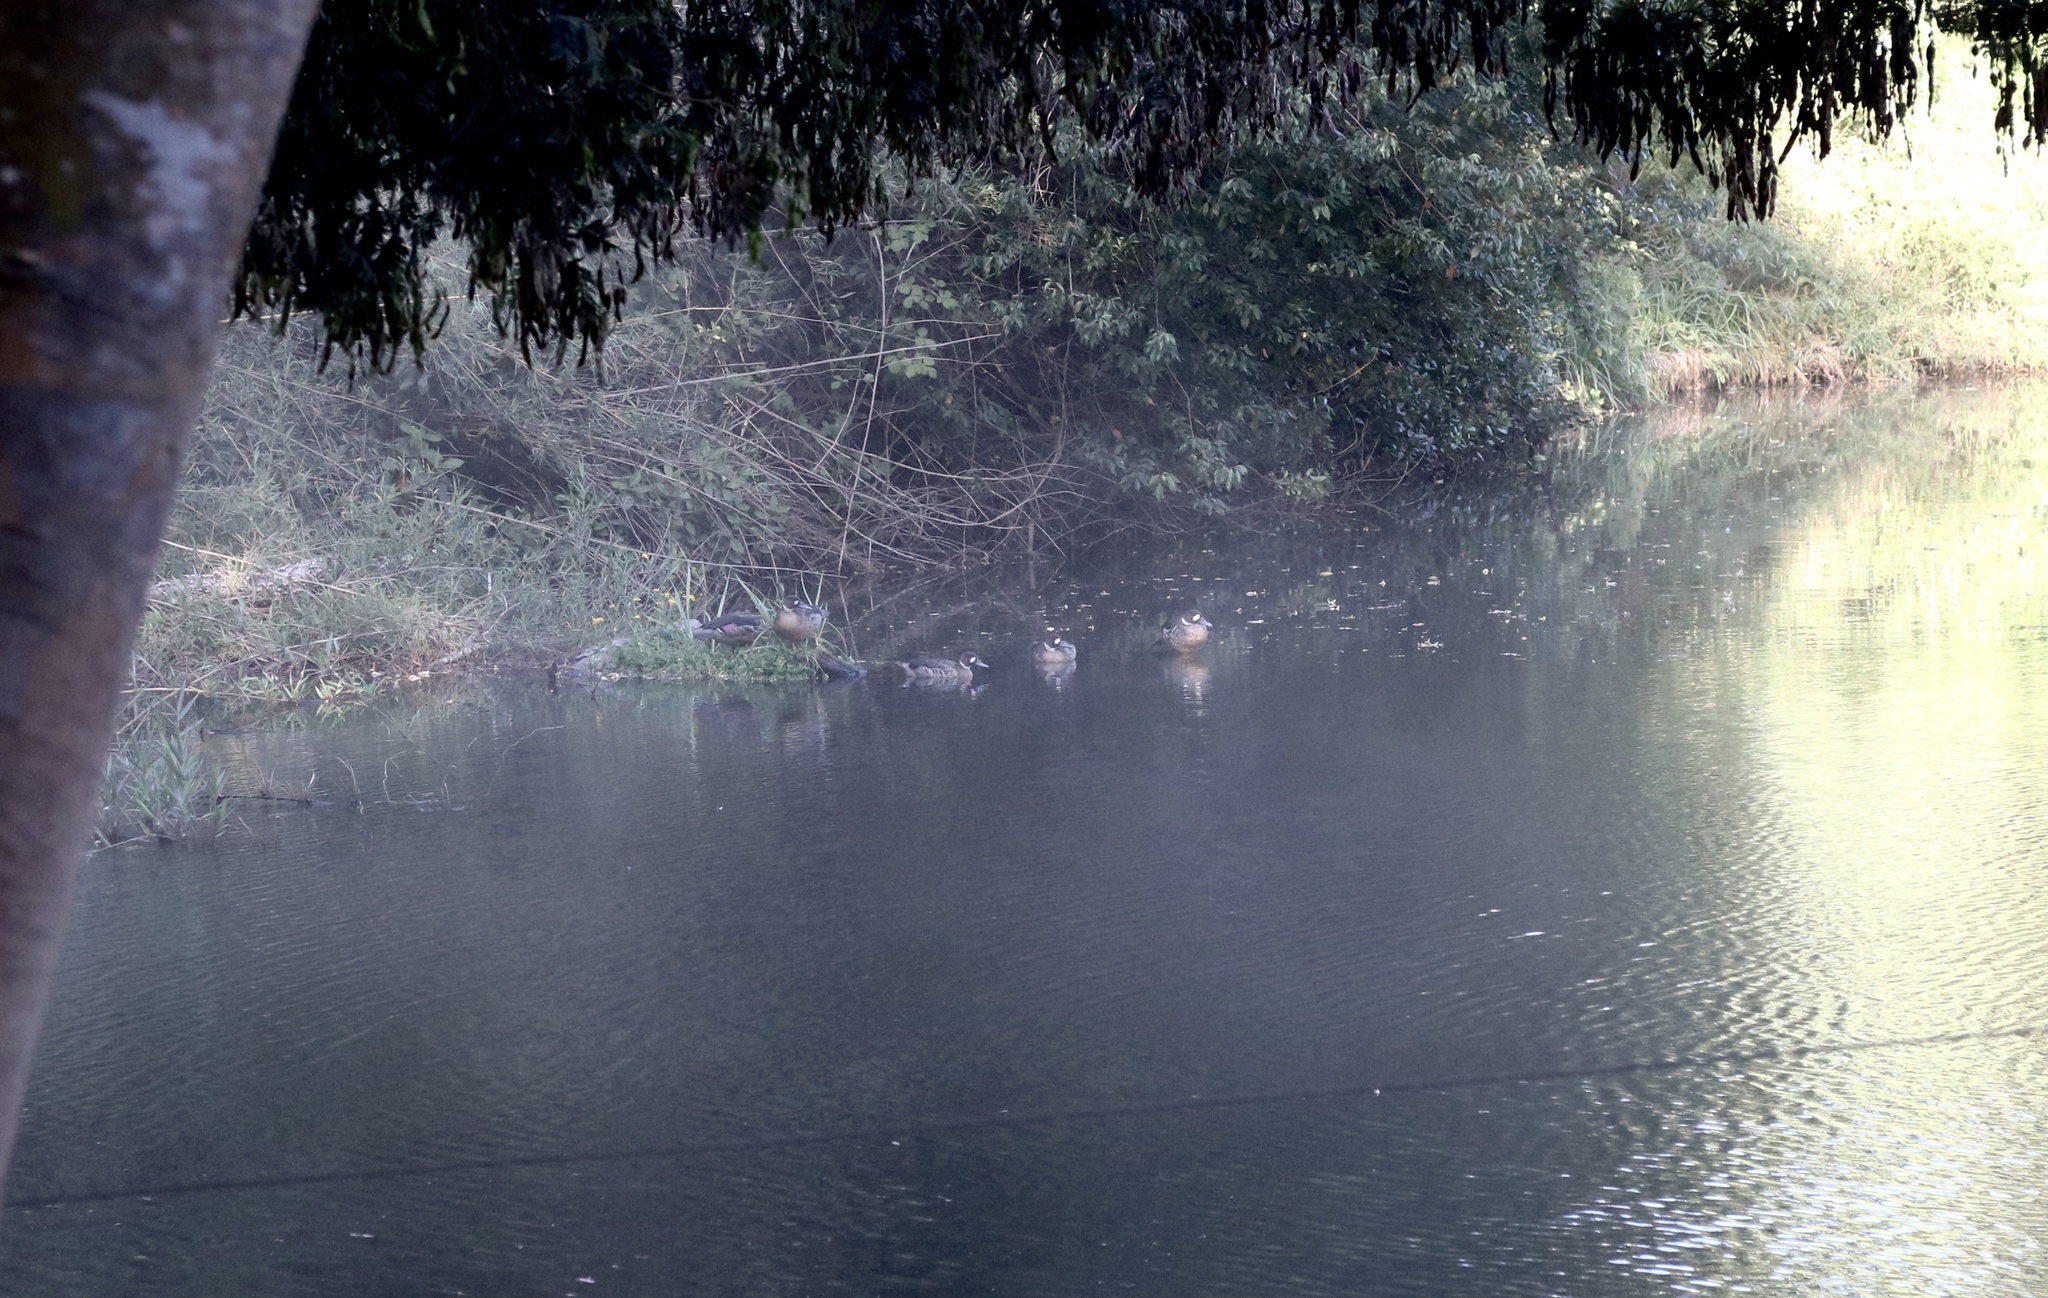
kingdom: Animalia
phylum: Chordata
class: Aves
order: Anseriformes
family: Anatidae
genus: Speculanas
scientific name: Speculanas specularis
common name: Bronze-winged duck
